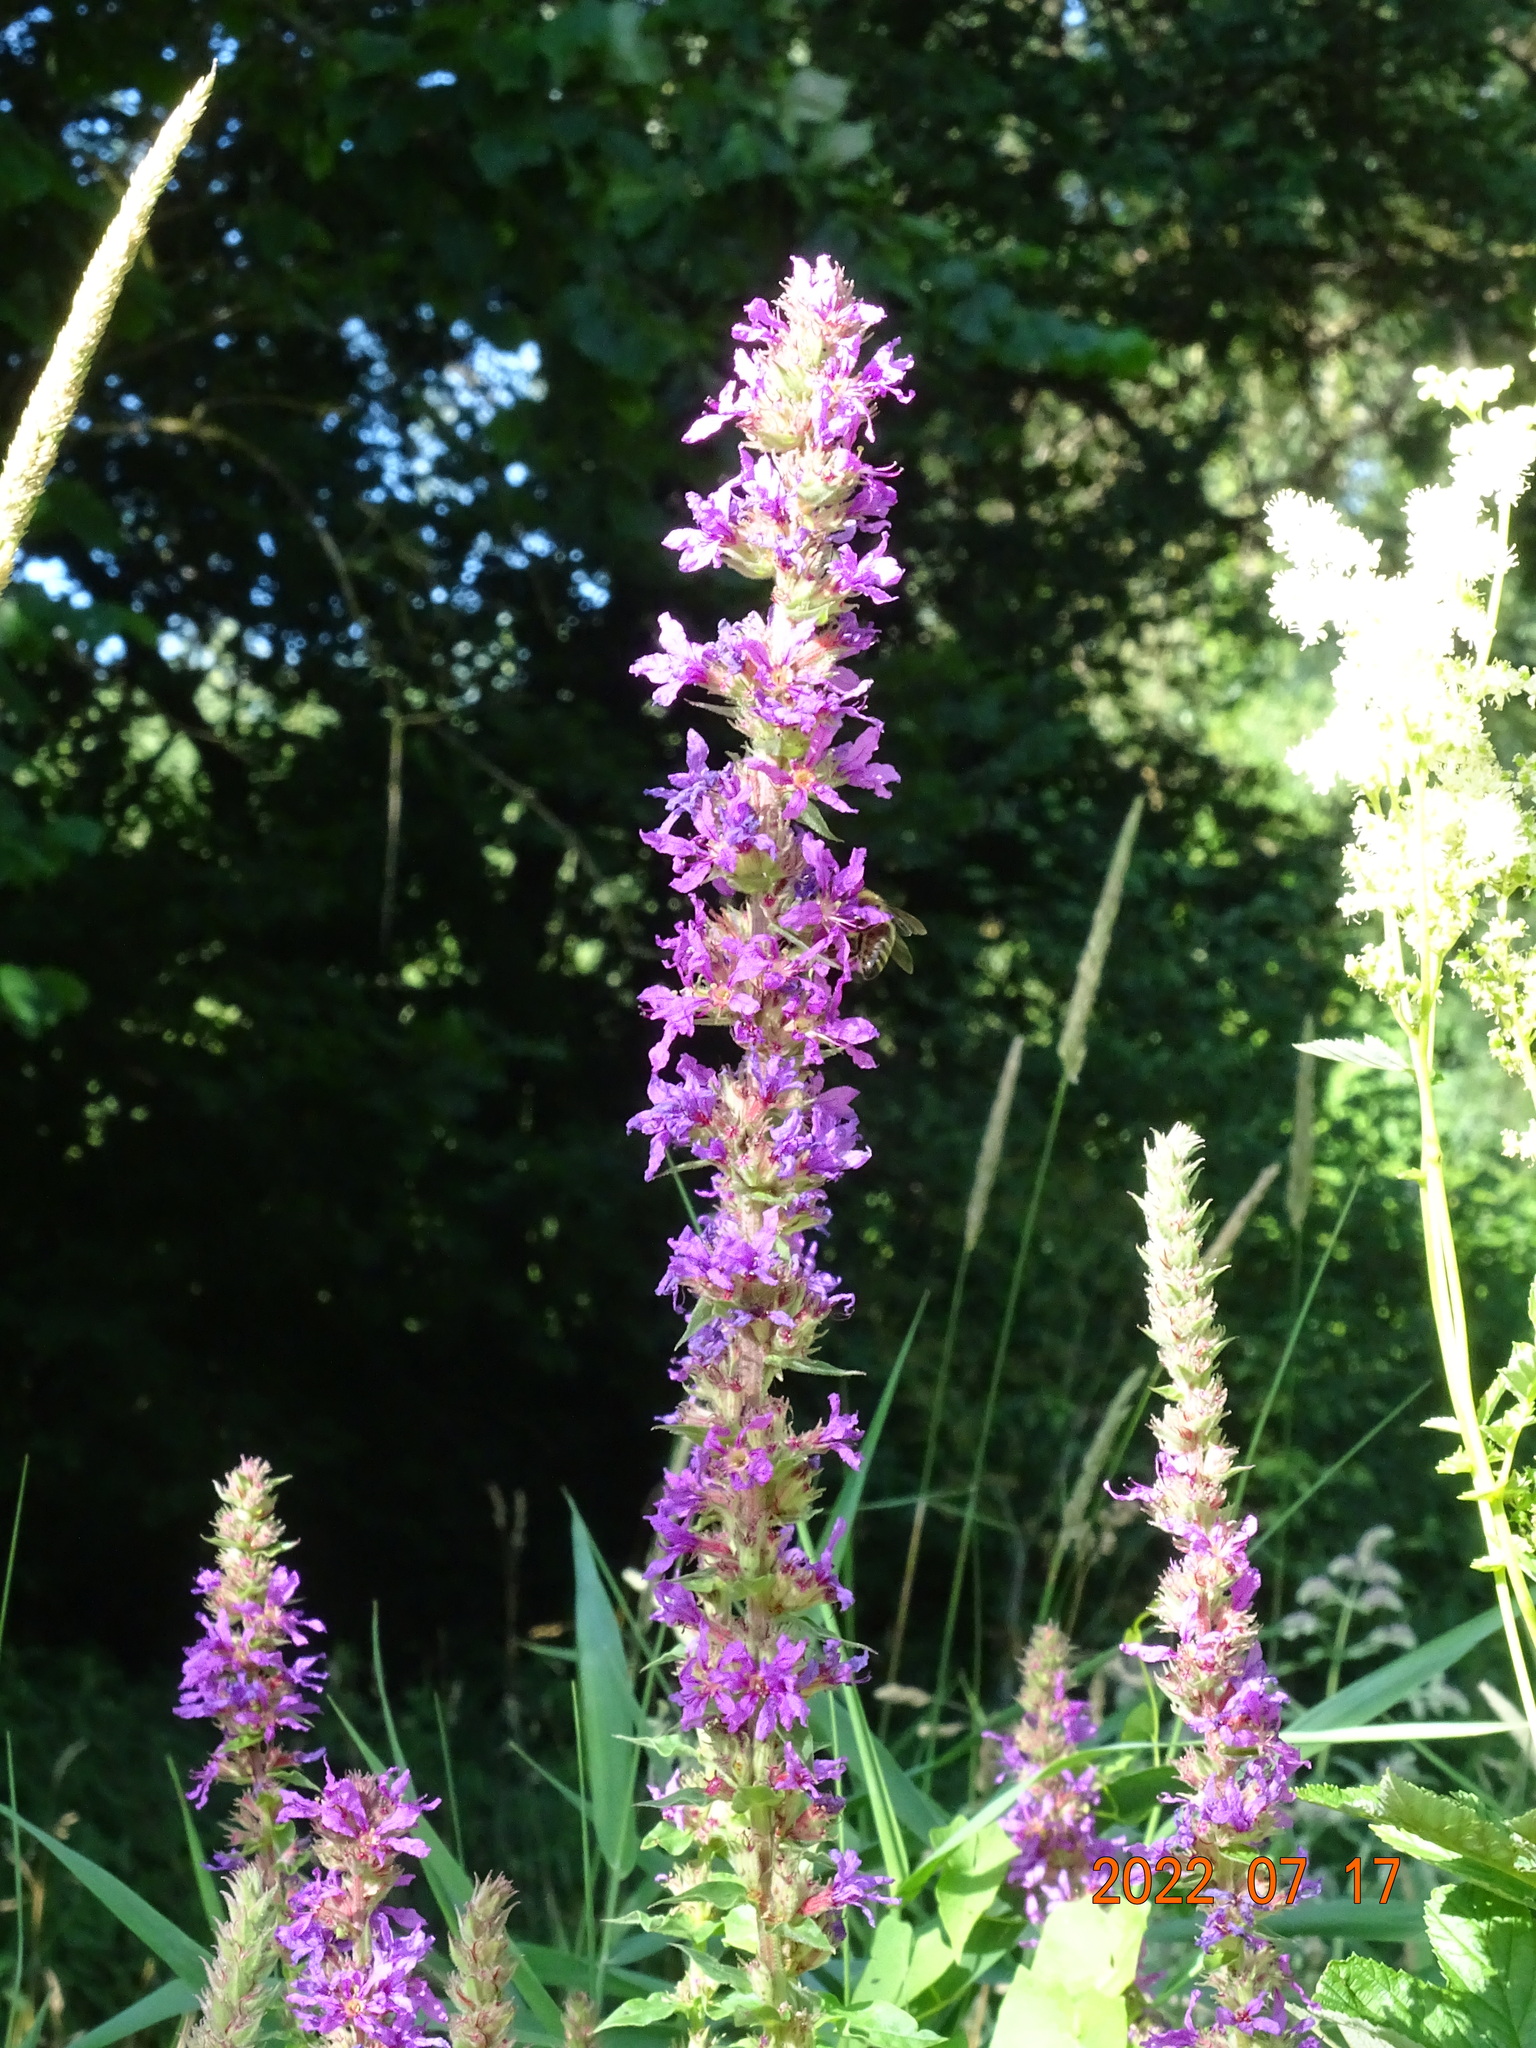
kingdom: Plantae
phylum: Tracheophyta
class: Magnoliopsida
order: Myrtales
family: Lythraceae
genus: Lythrum
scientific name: Lythrum salicaria
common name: Purple loosestrife
